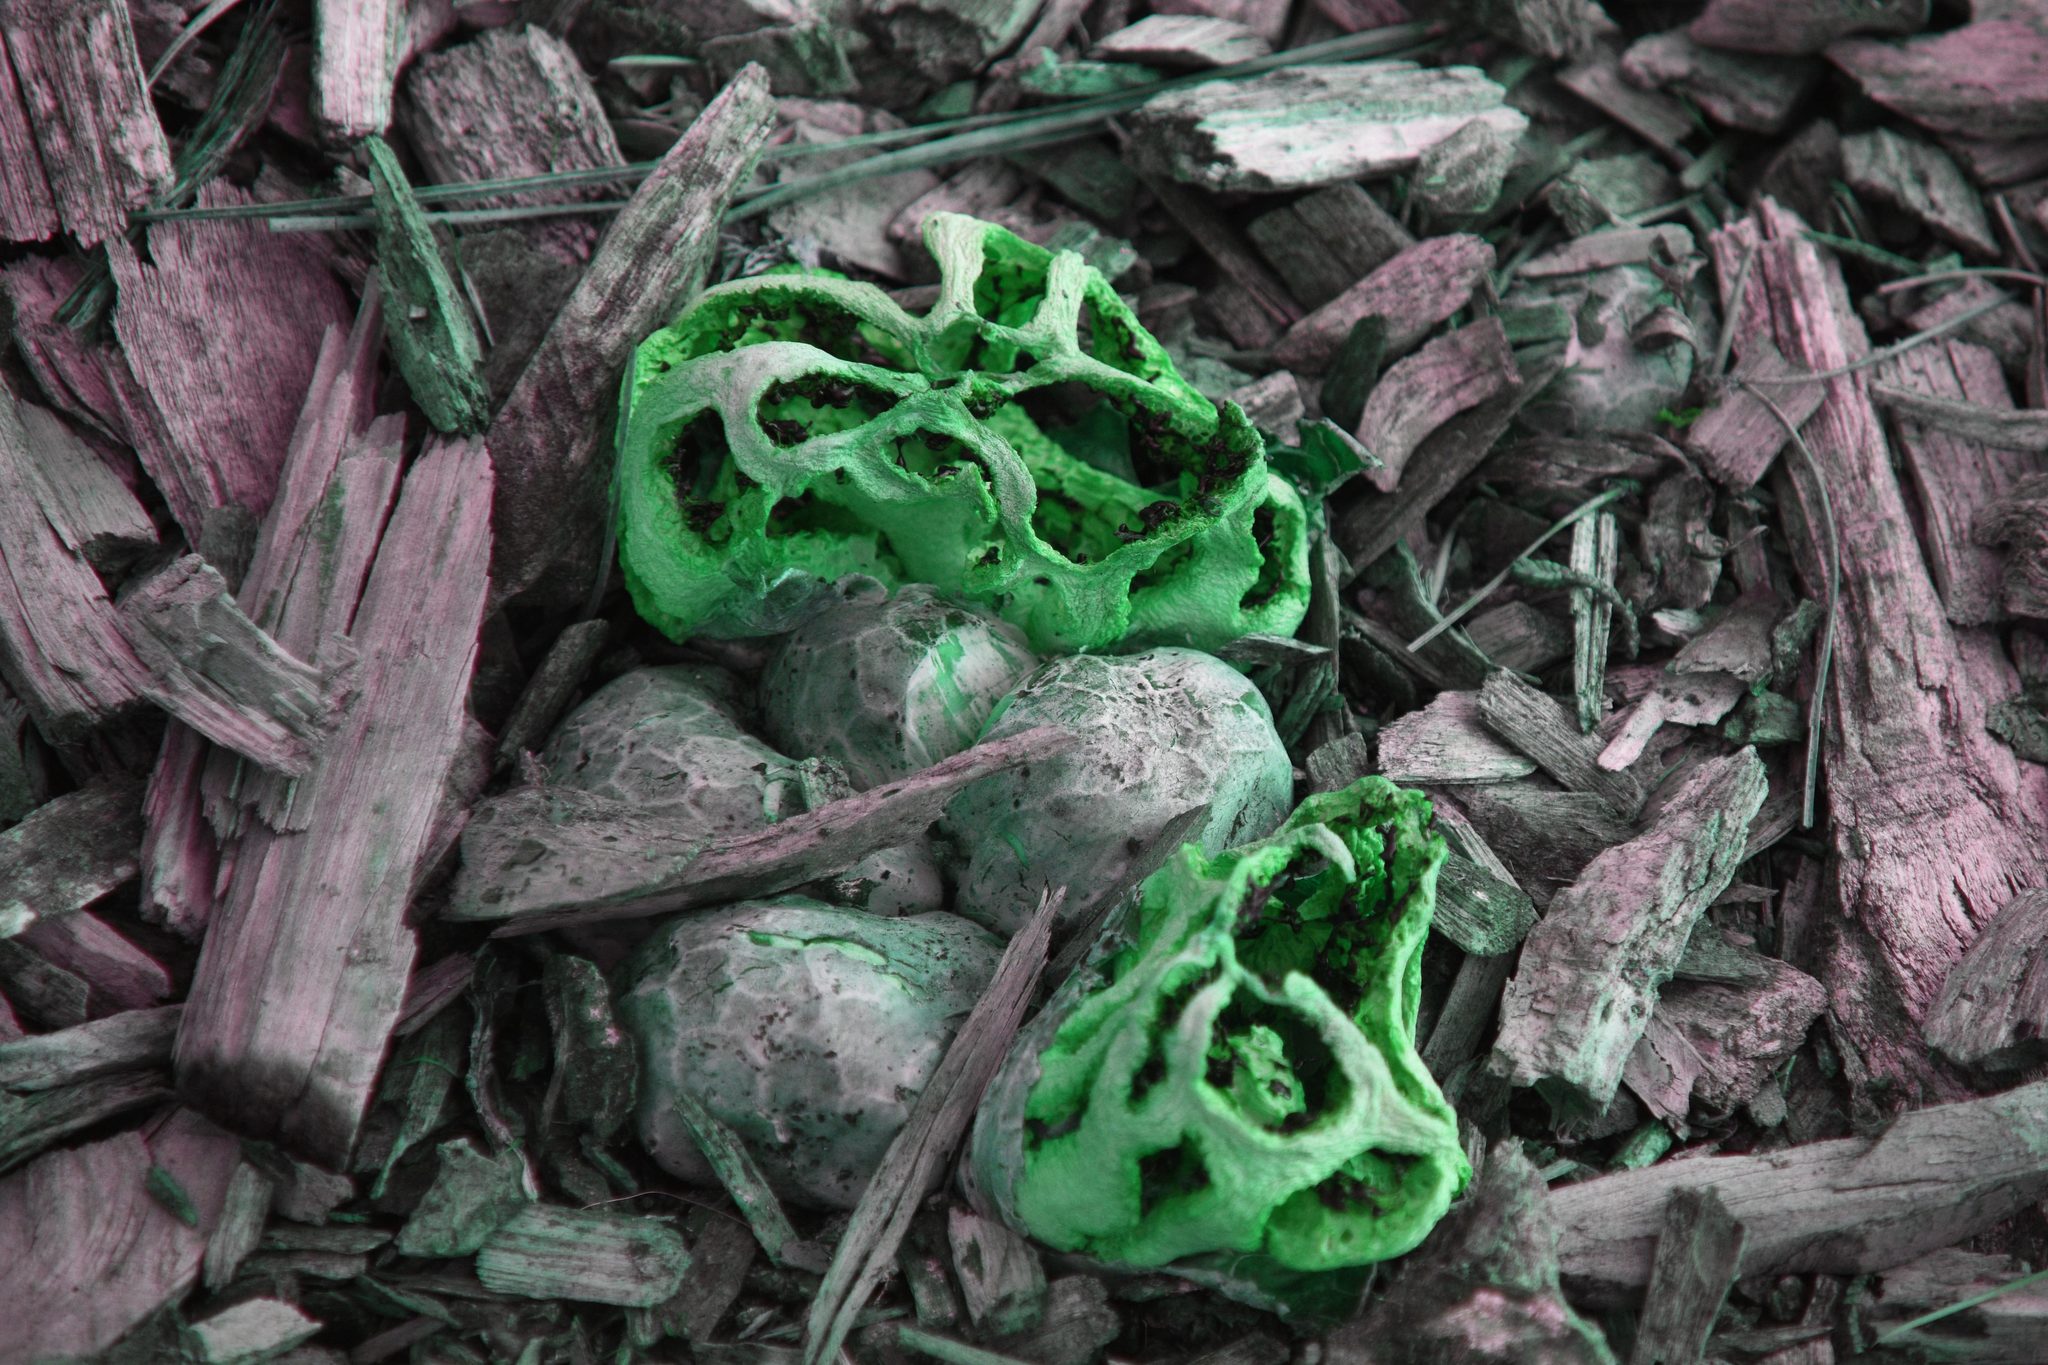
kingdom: Fungi
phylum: Basidiomycota
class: Agaricomycetes
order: Phallales
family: Phallaceae
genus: Clathrus
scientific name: Clathrus ruber
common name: Red cage
